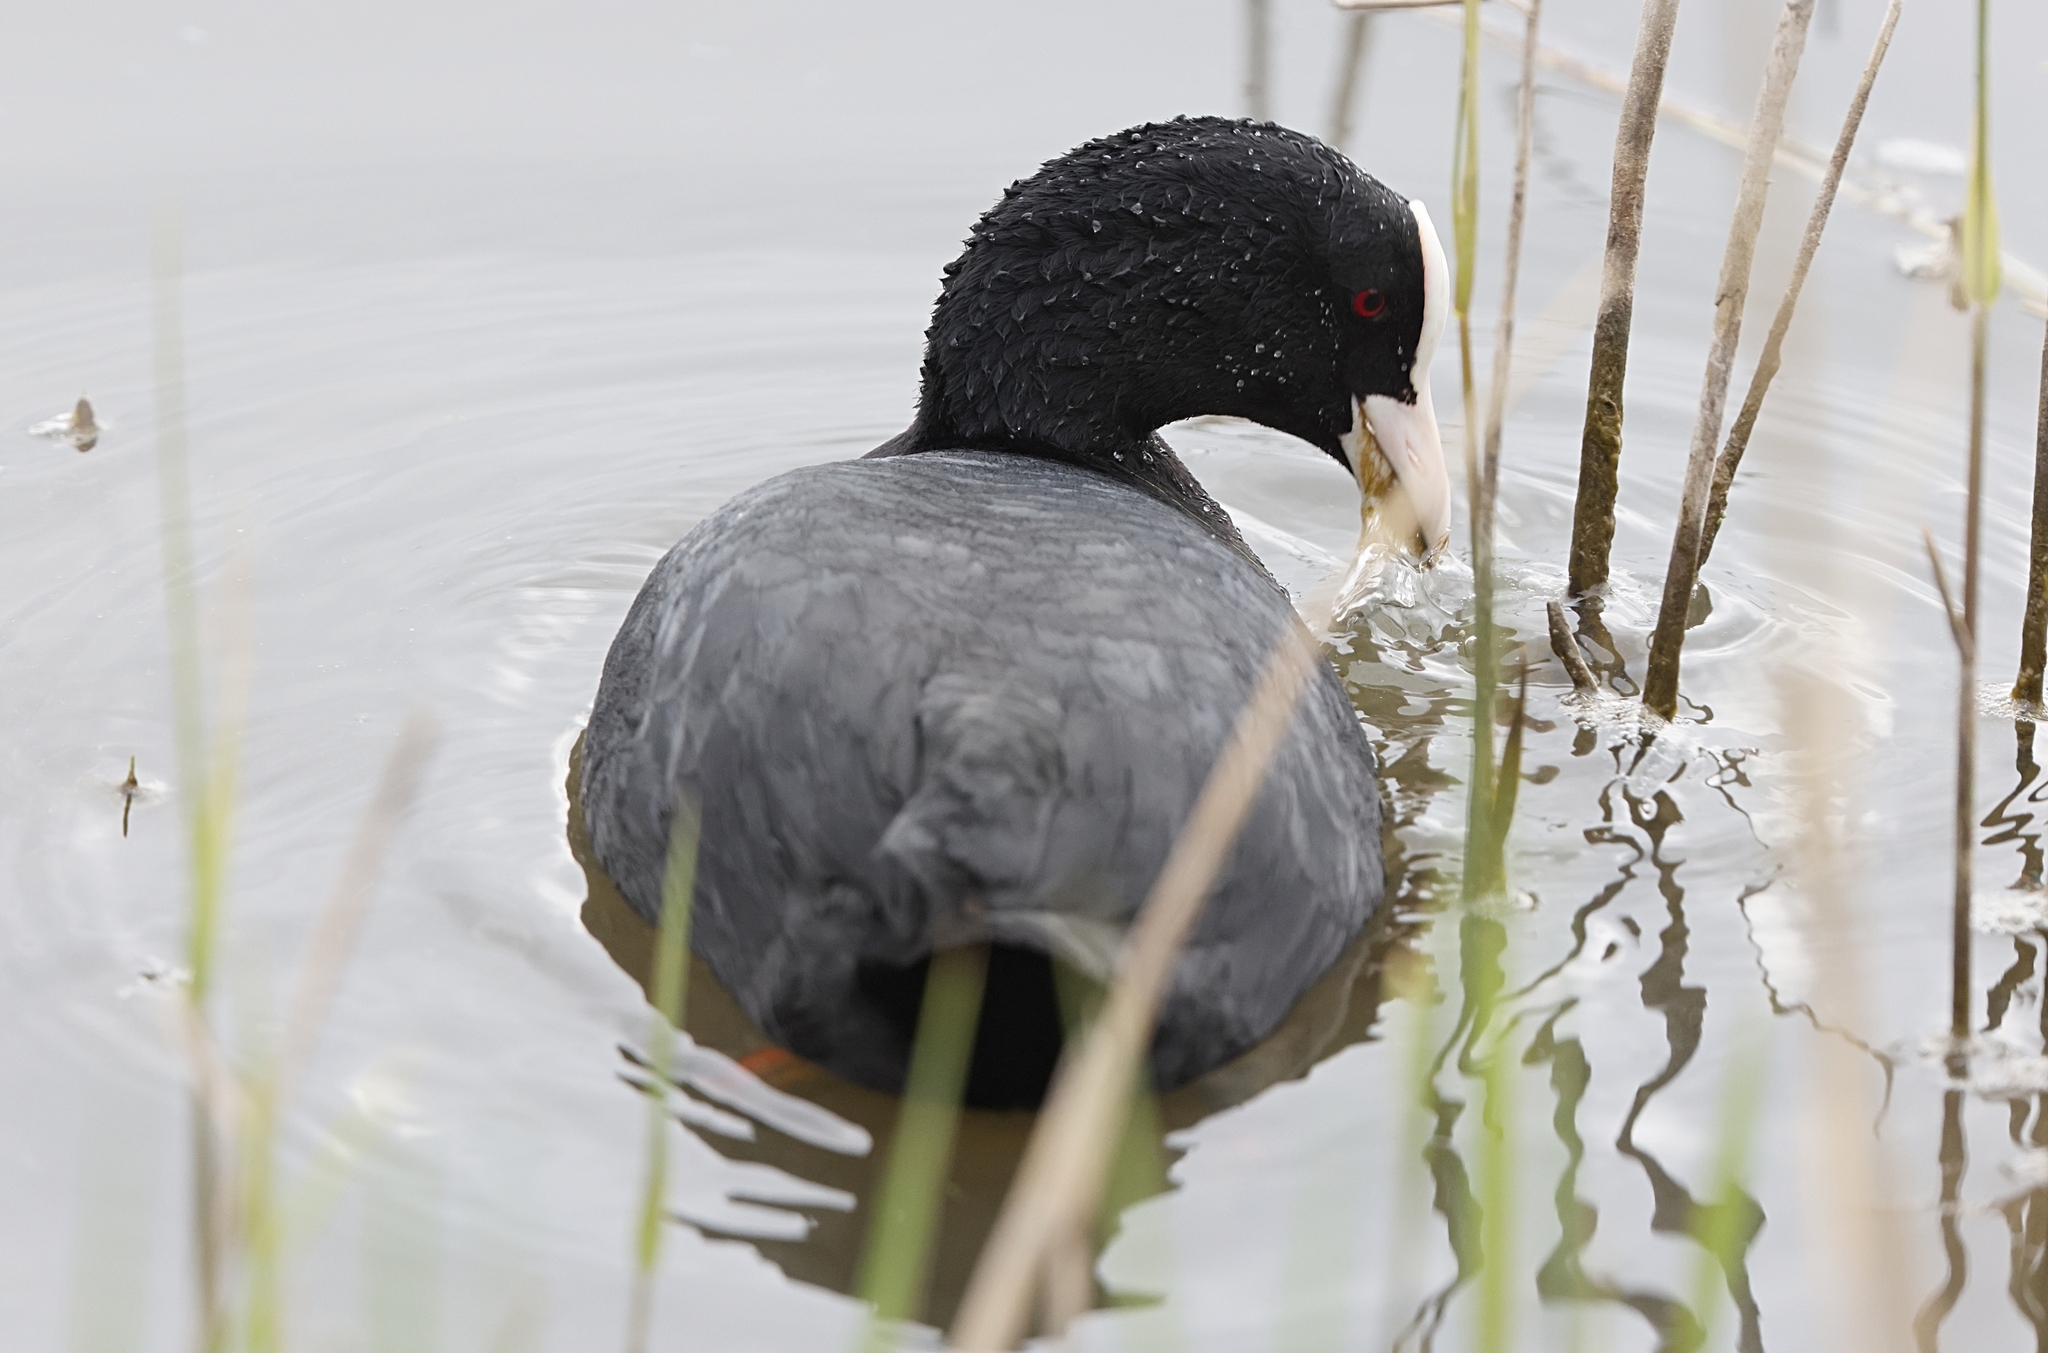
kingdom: Animalia
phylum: Chordata
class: Aves
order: Gruiformes
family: Rallidae
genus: Fulica
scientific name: Fulica atra
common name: Eurasian coot
